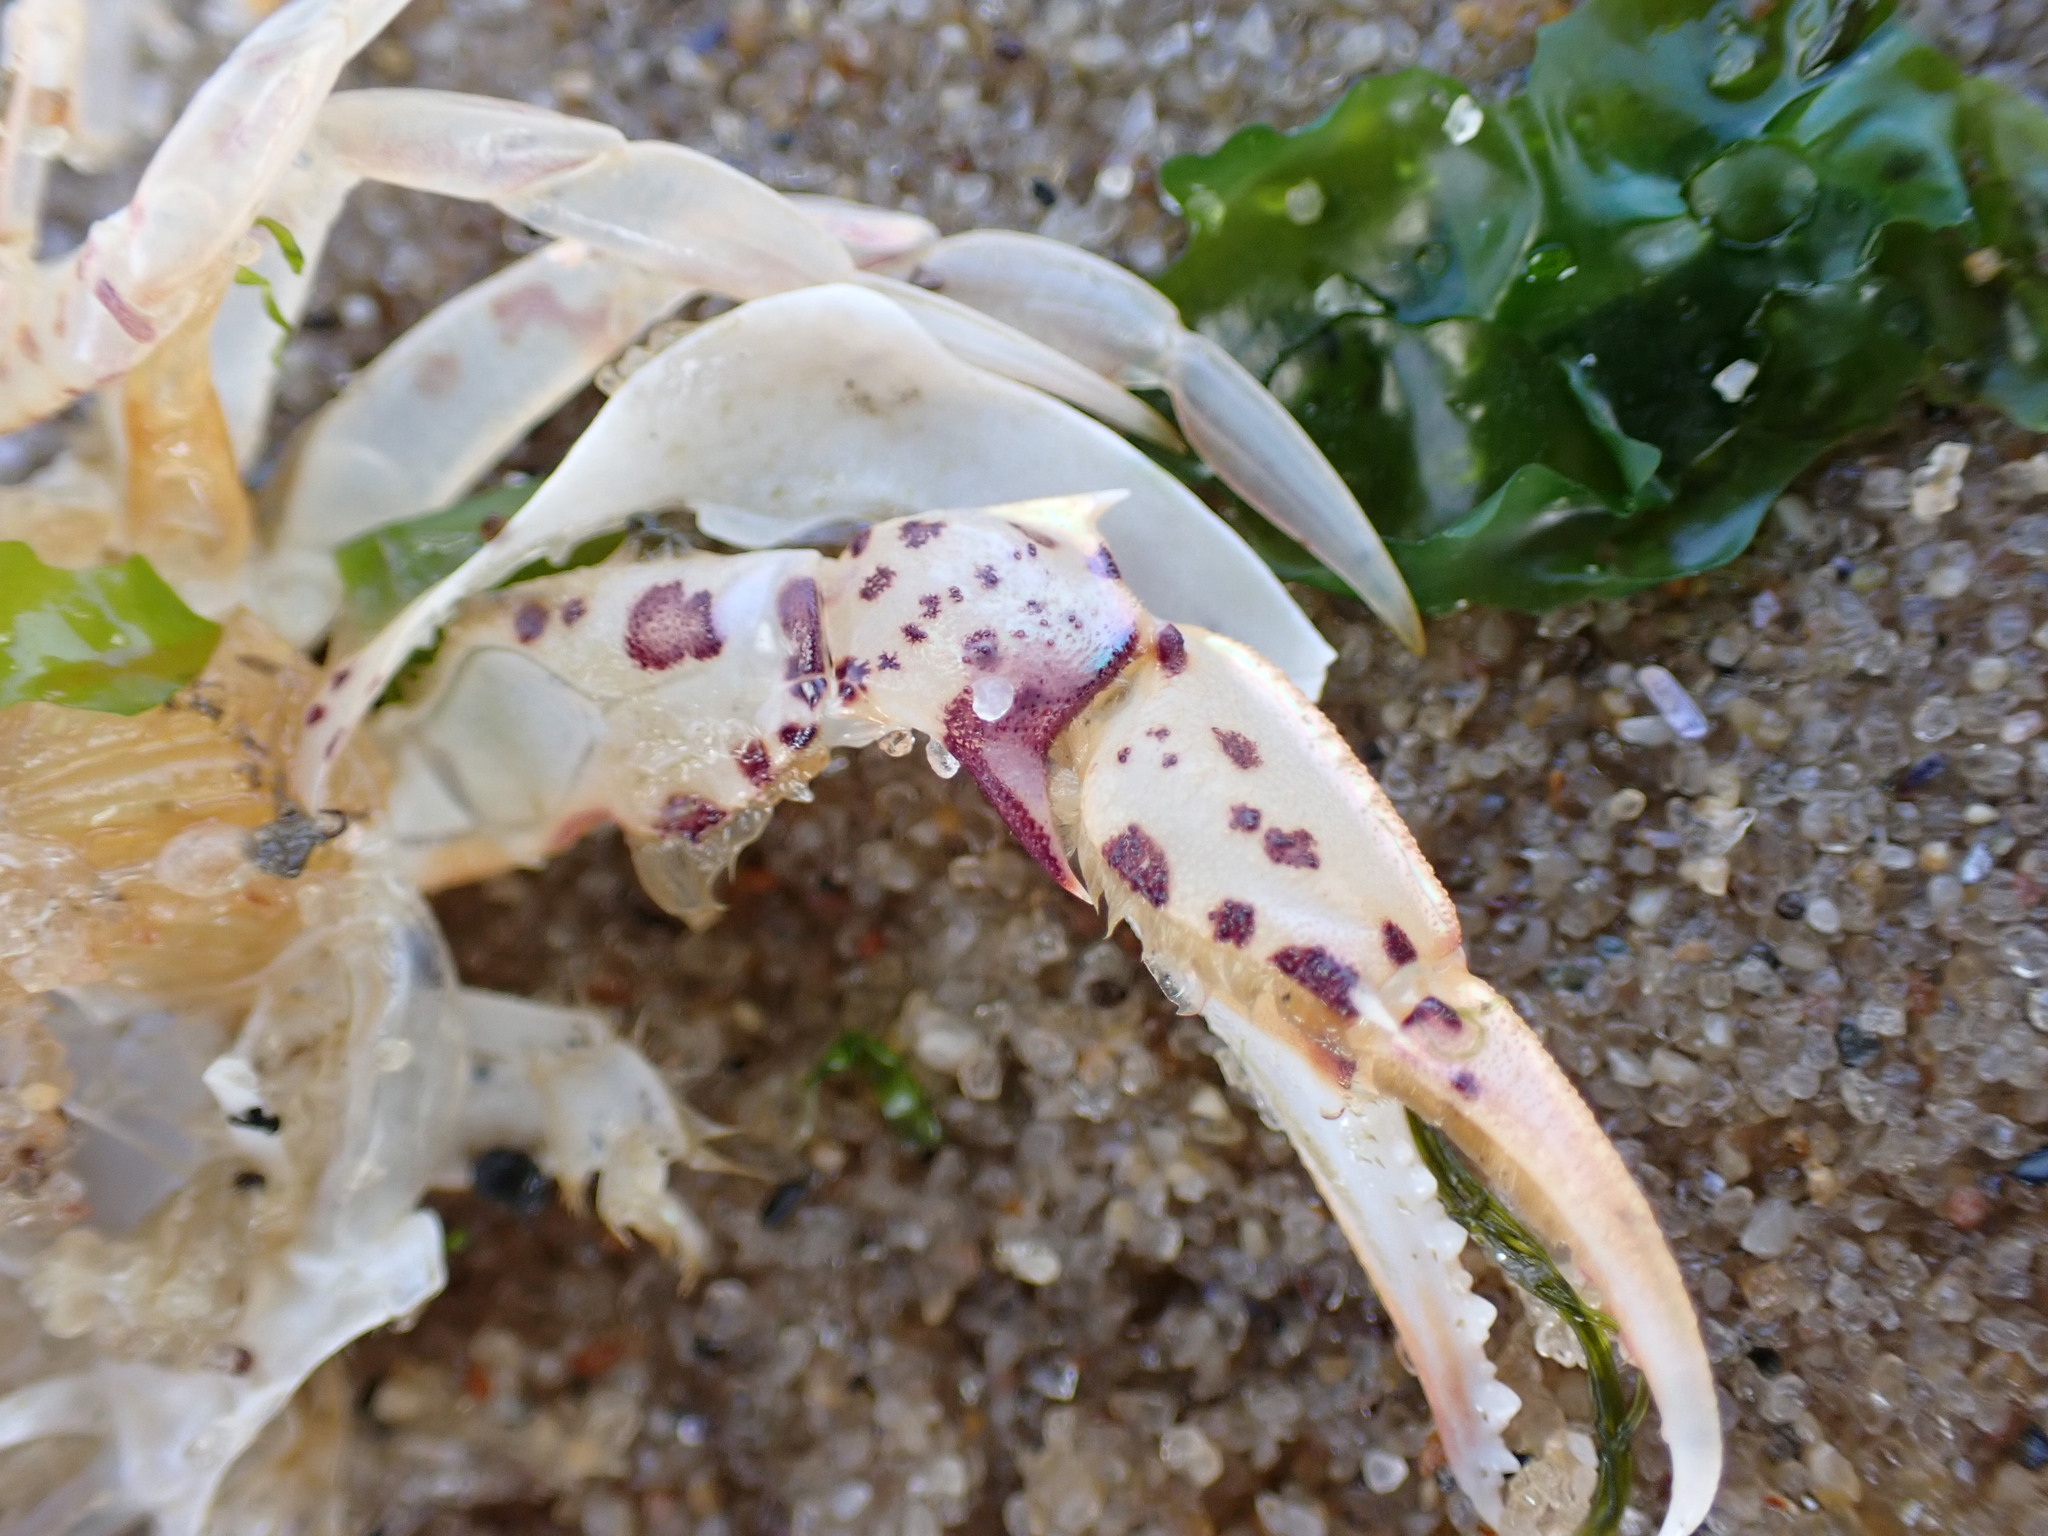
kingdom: Animalia
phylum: Arthropoda
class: Malacostraca
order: Decapoda
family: Ovalipidae
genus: Ovalipes
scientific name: Ovalipes ocellatus
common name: Lady crab
